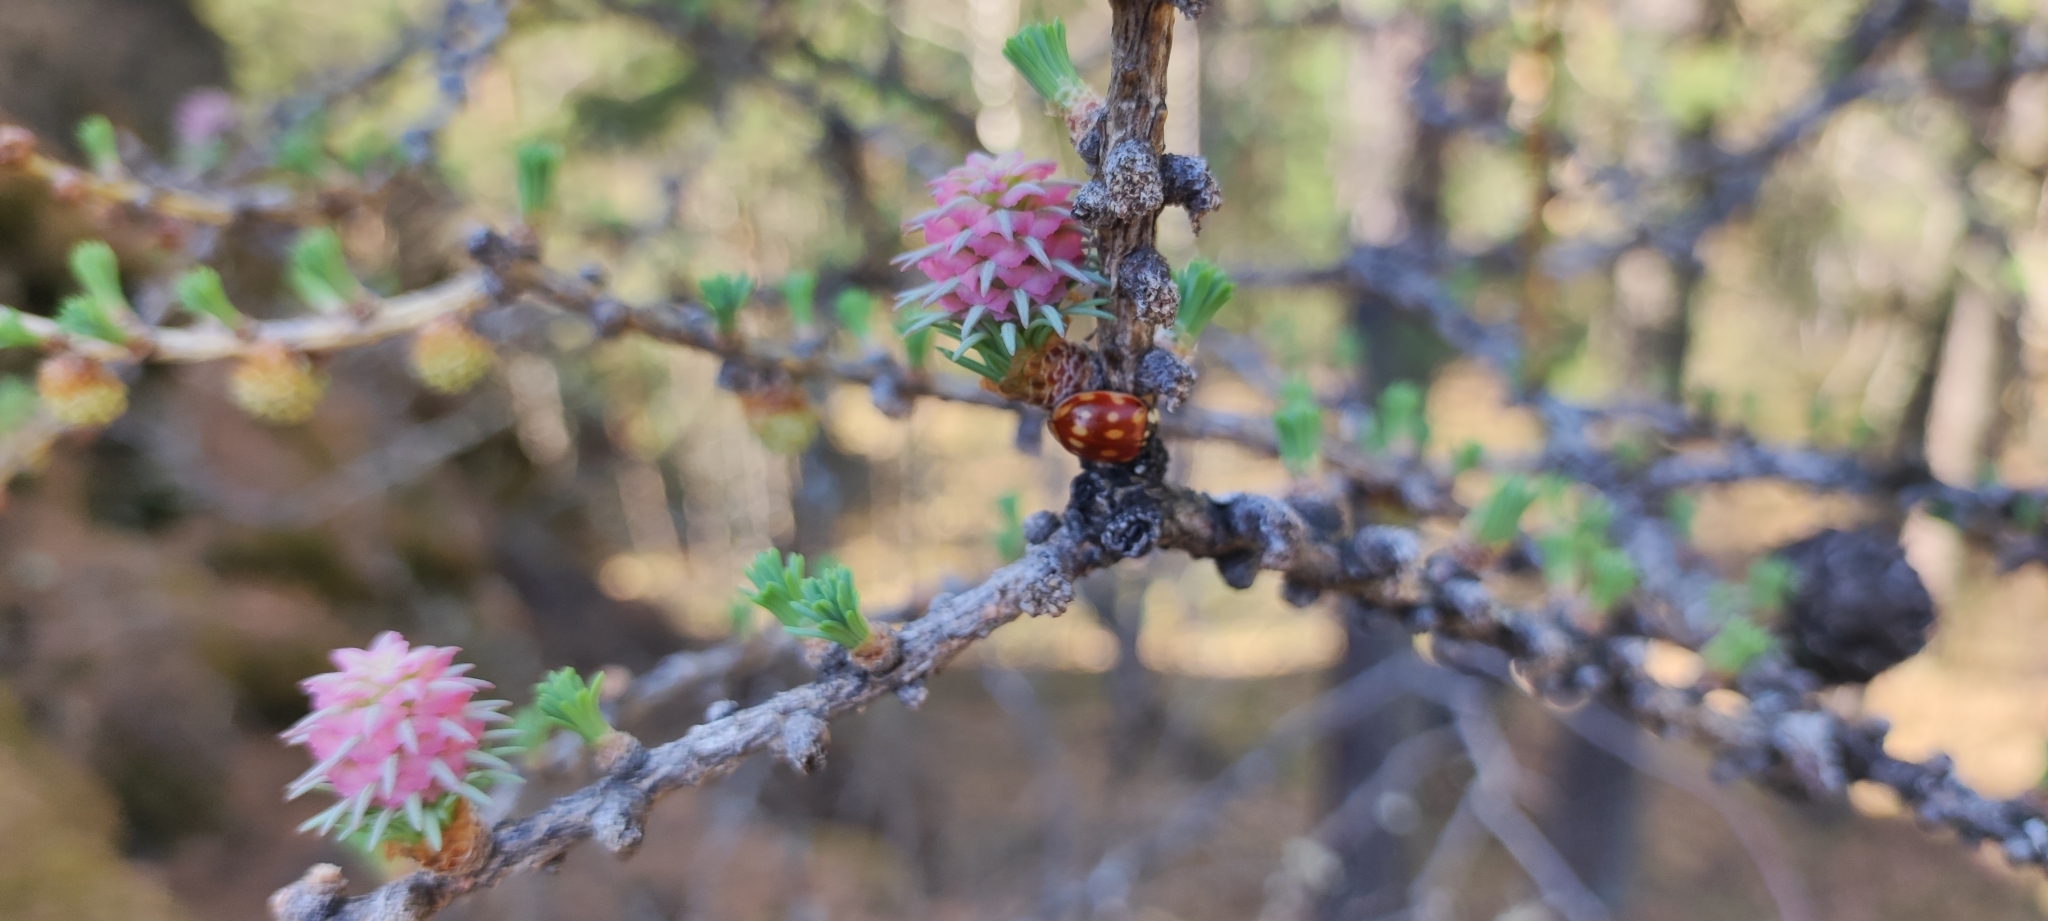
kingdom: Plantae
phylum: Tracheophyta
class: Pinopsida
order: Pinales
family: Pinaceae
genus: Larix
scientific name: Larix sibirica
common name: Siberian larch
